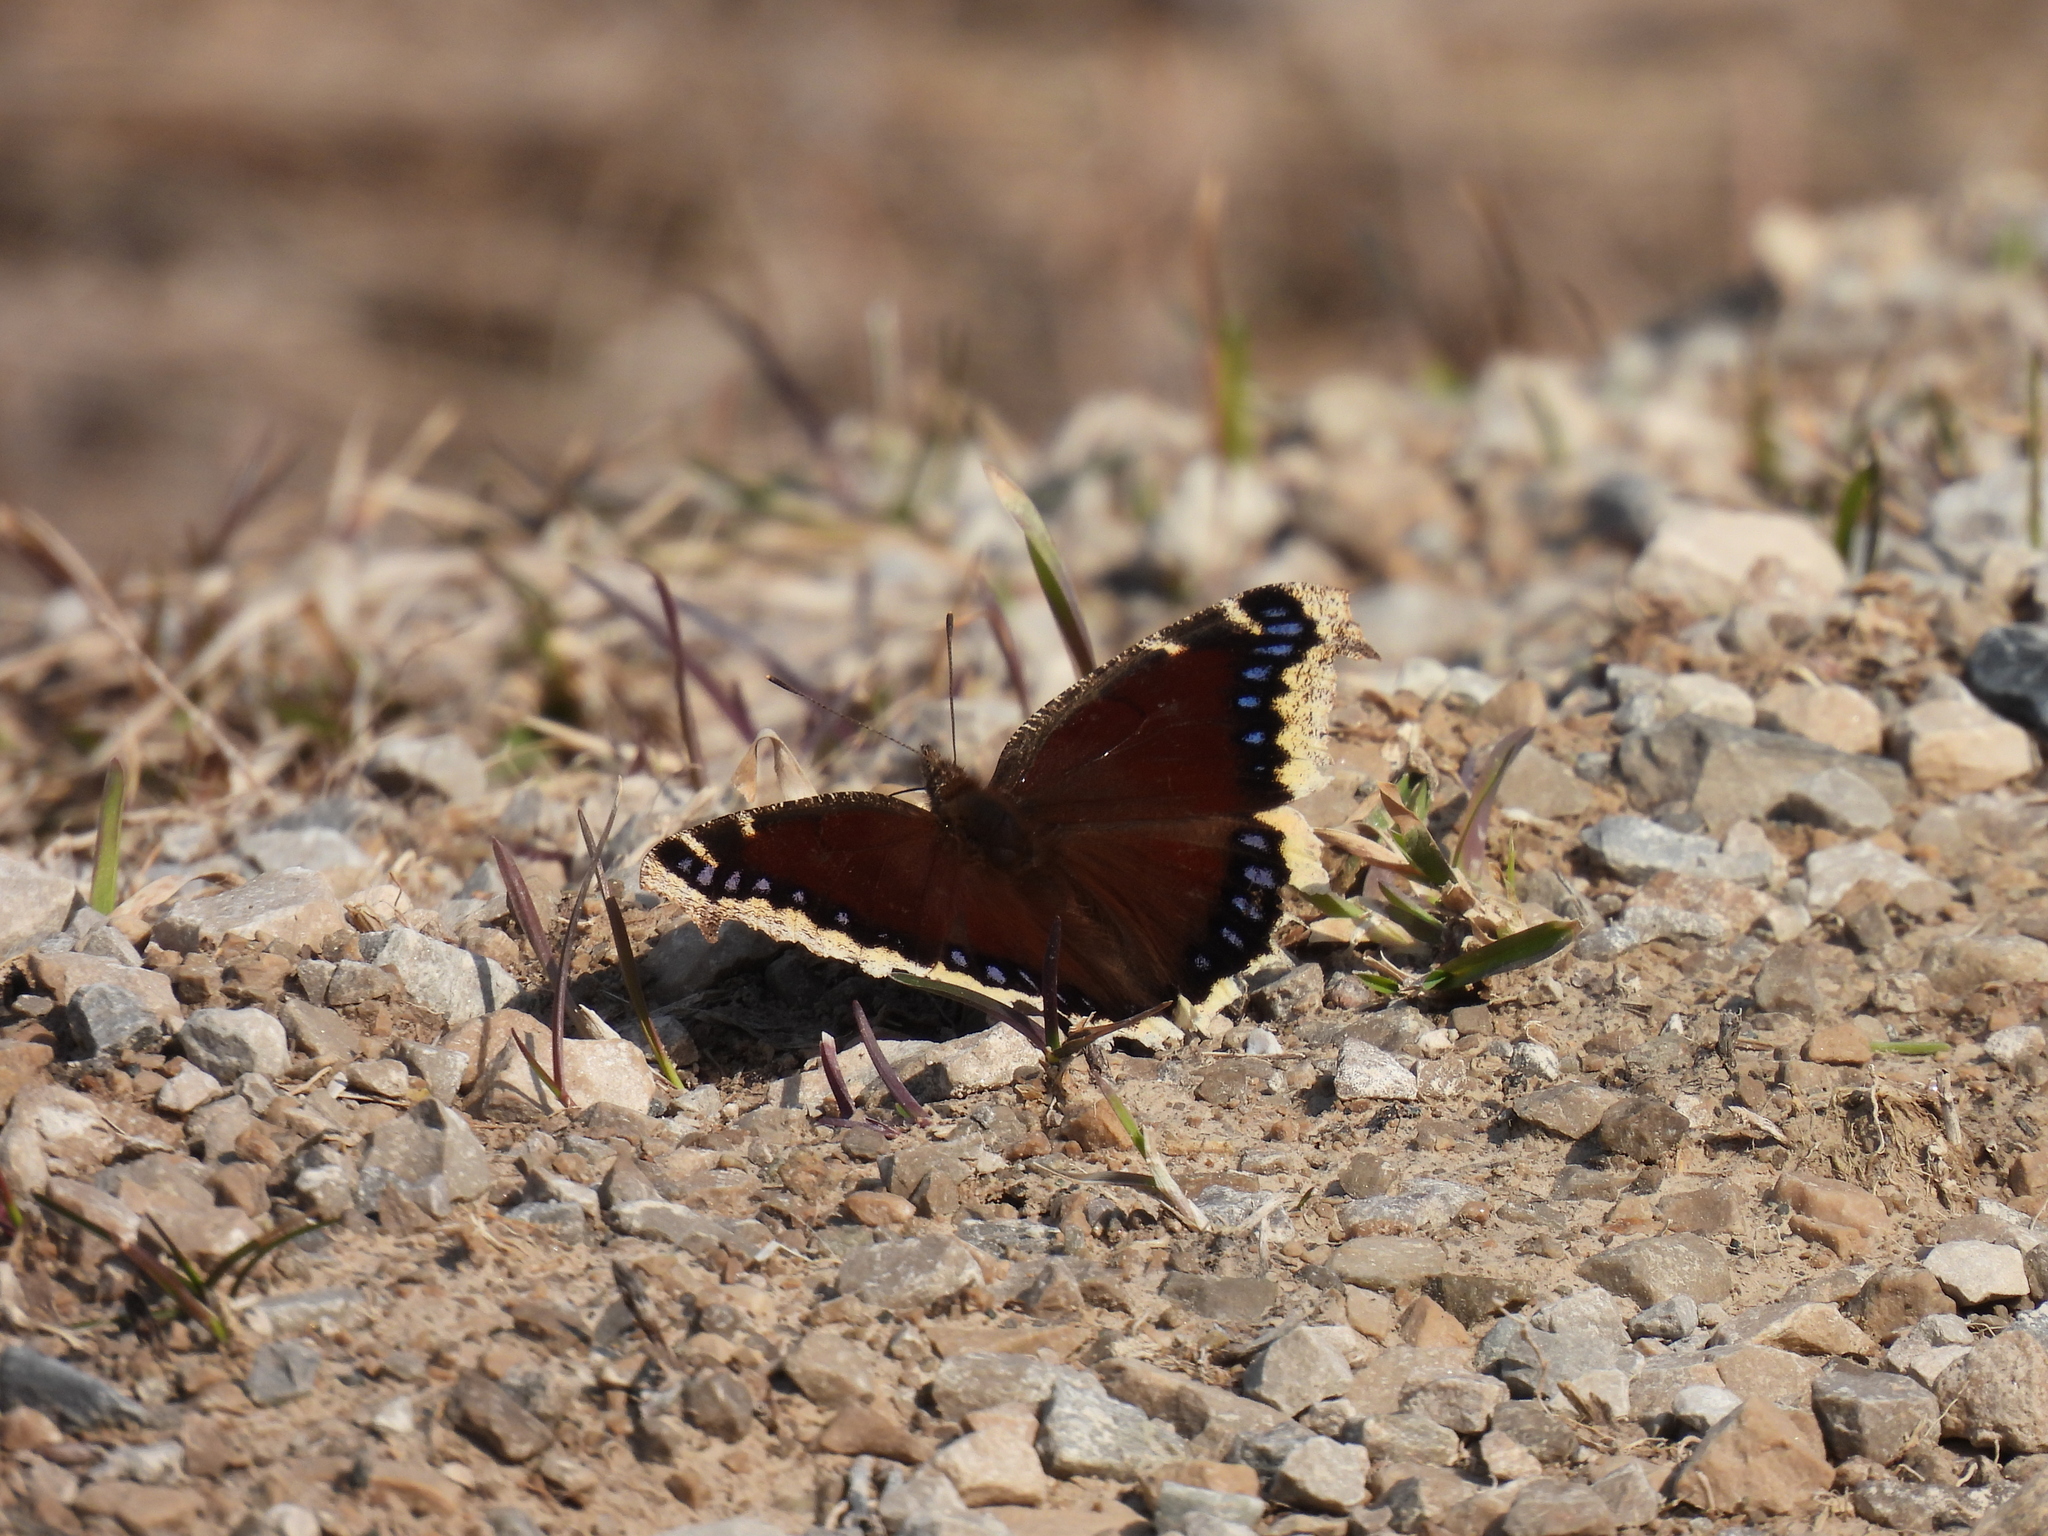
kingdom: Animalia
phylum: Arthropoda
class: Insecta
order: Lepidoptera
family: Nymphalidae
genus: Nymphalis
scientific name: Nymphalis antiopa
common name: Camberwell beauty
